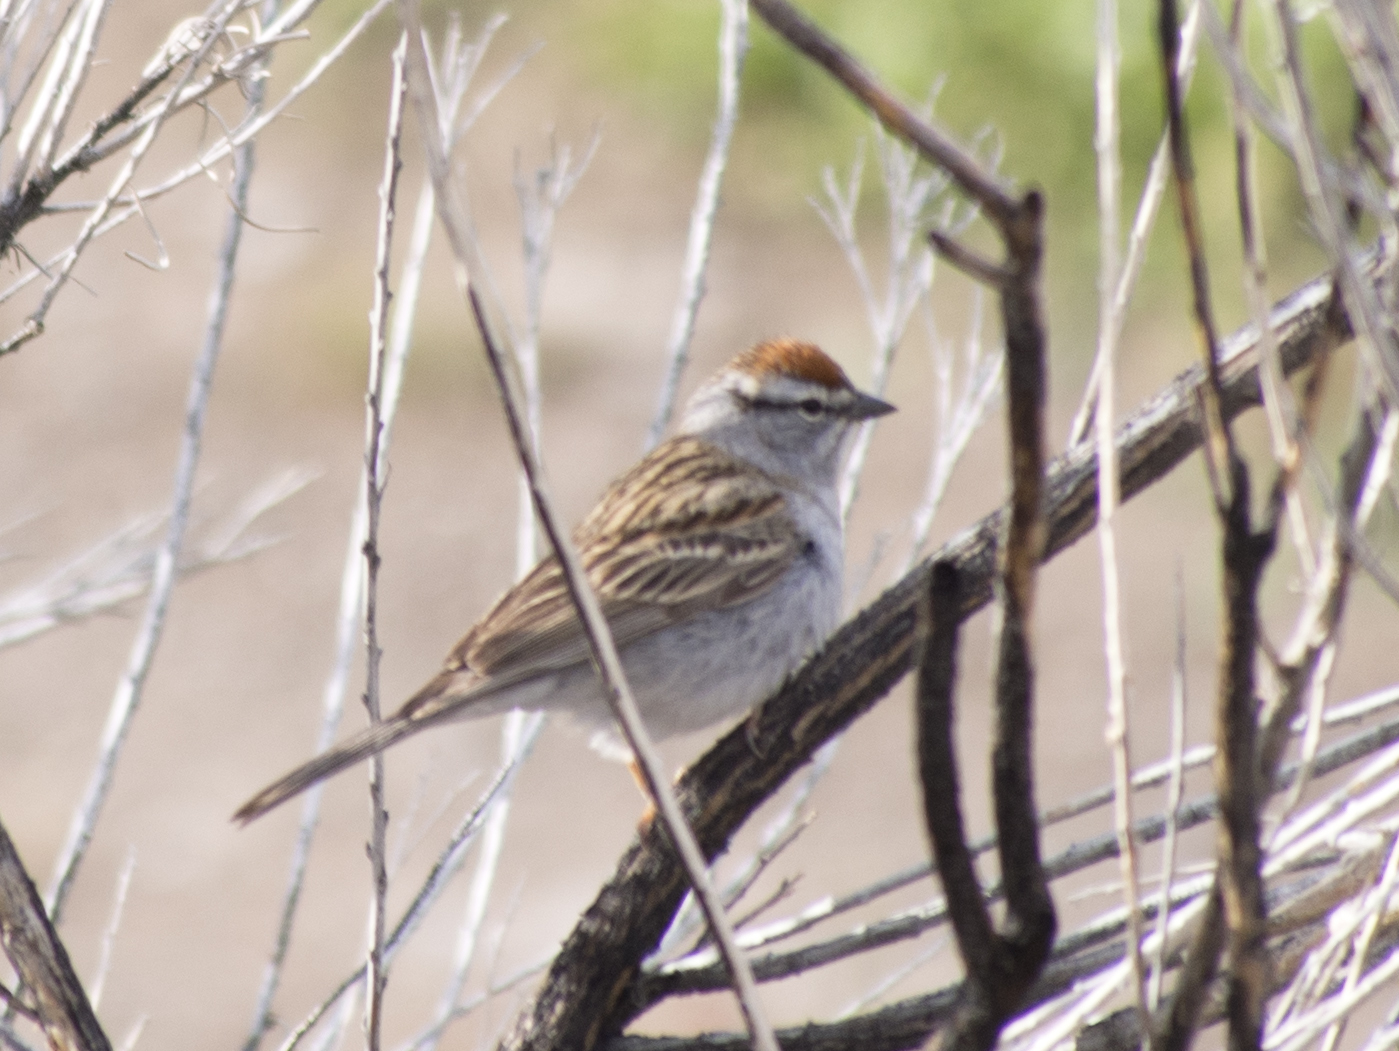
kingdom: Animalia
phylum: Chordata
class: Aves
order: Passeriformes
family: Passerellidae
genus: Spizella
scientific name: Spizella passerina
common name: Chipping sparrow
